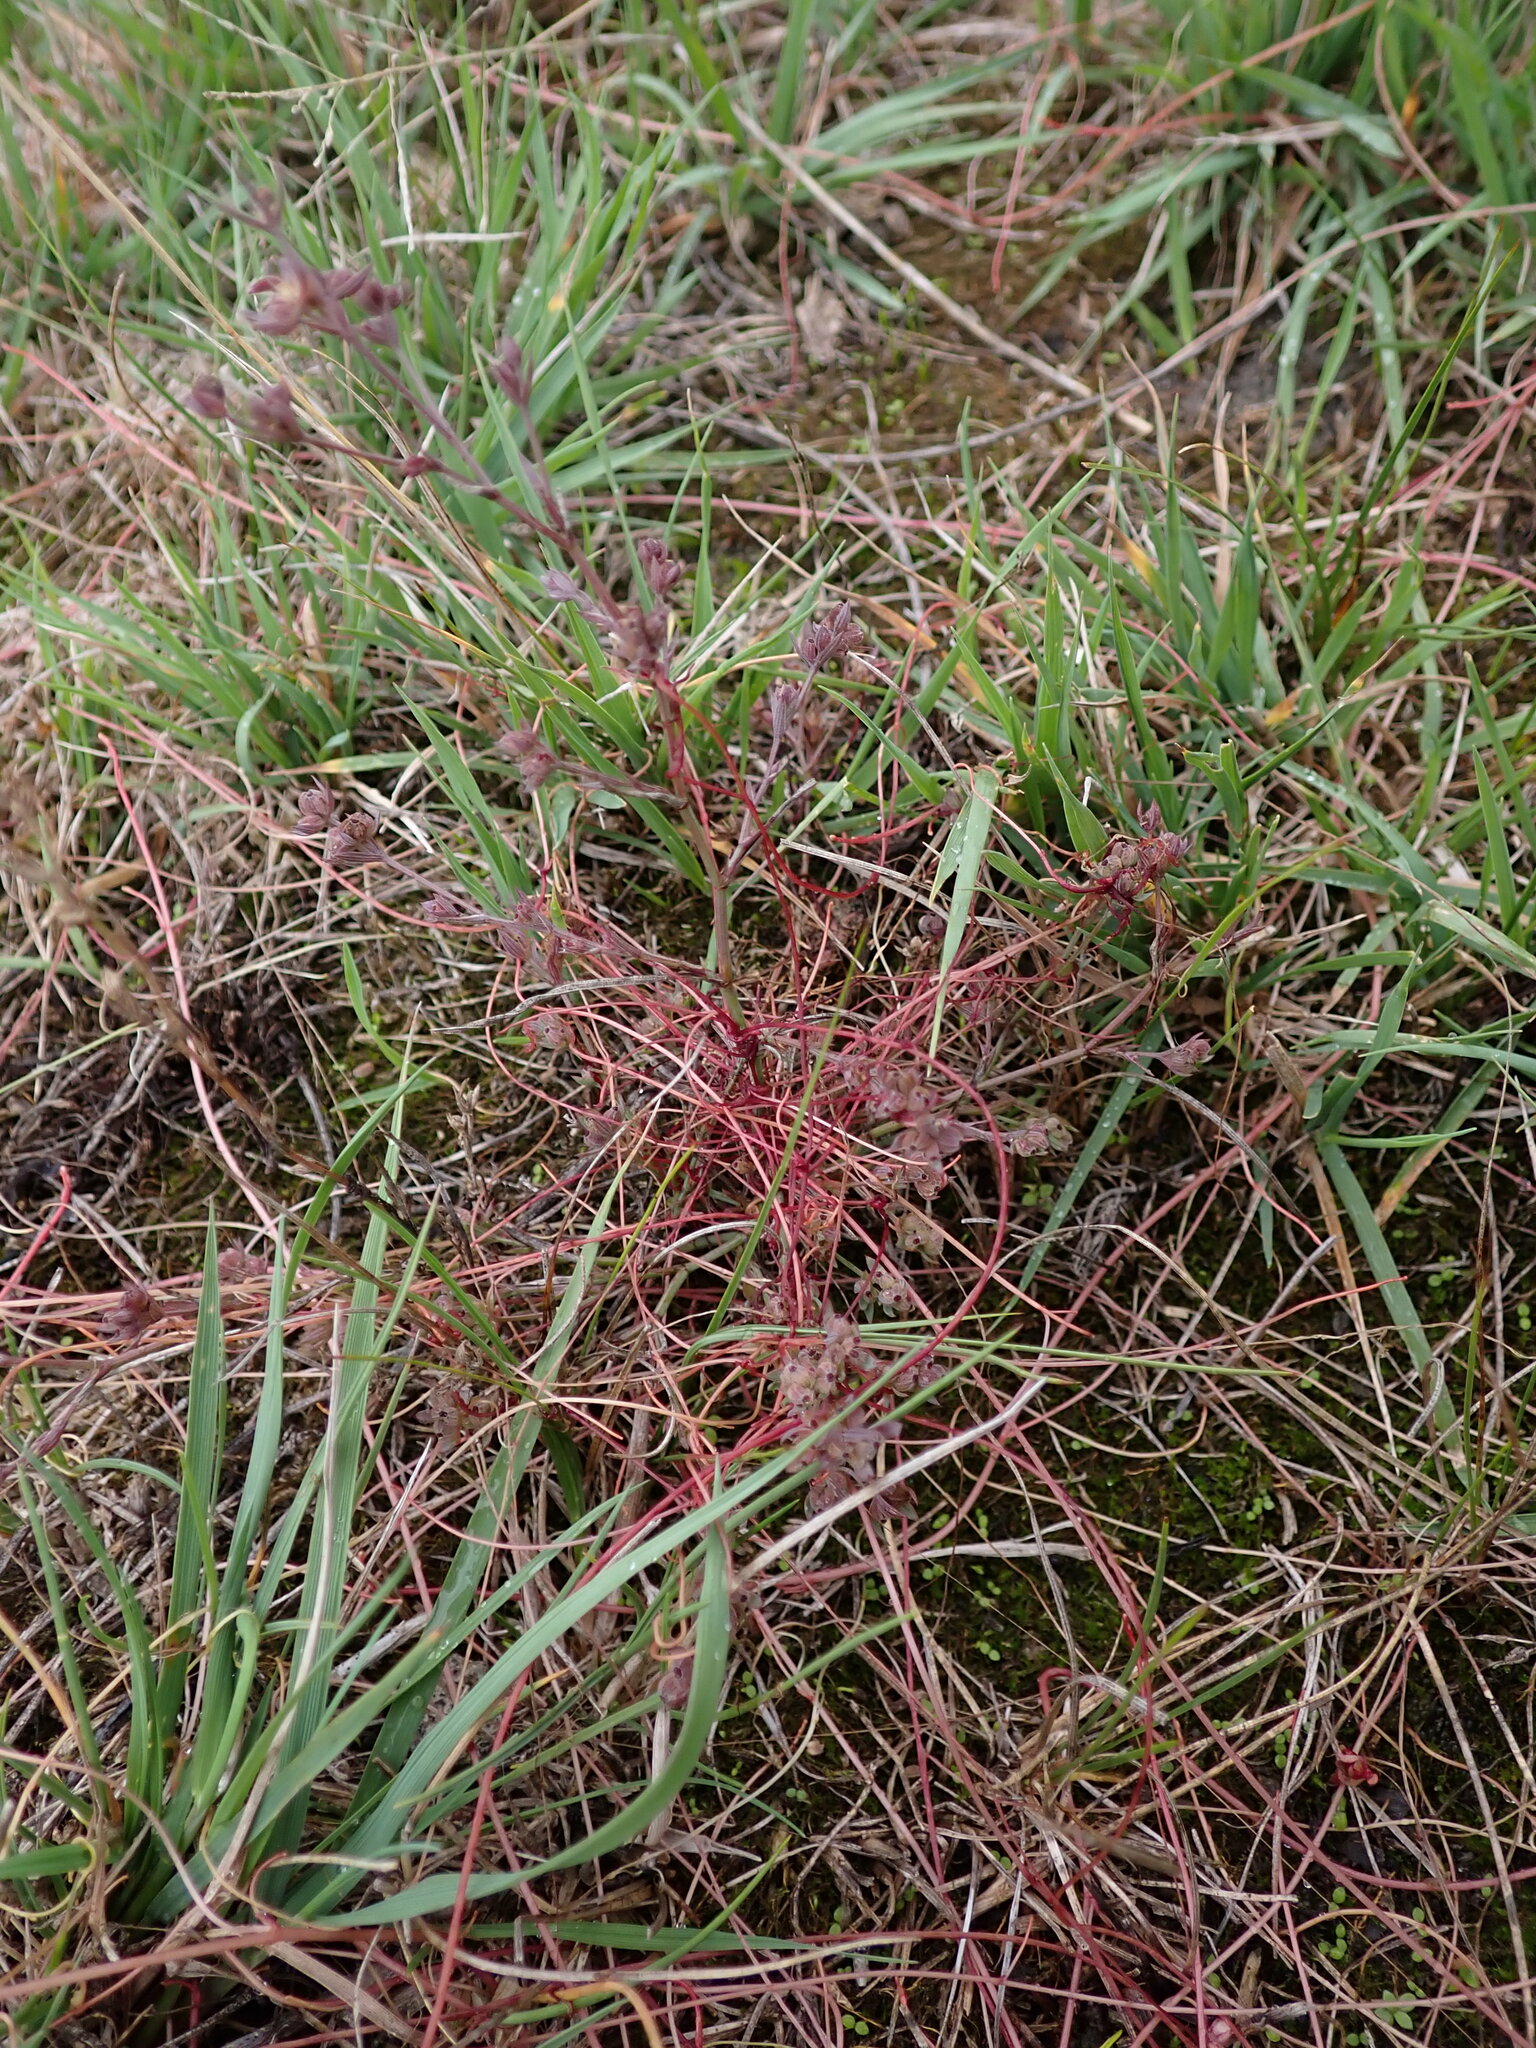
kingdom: Plantae
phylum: Tracheophyta
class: Magnoliopsida
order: Solanales
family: Convolvulaceae
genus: Cuscuta
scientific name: Cuscuta epithymum
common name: Clover dodder
